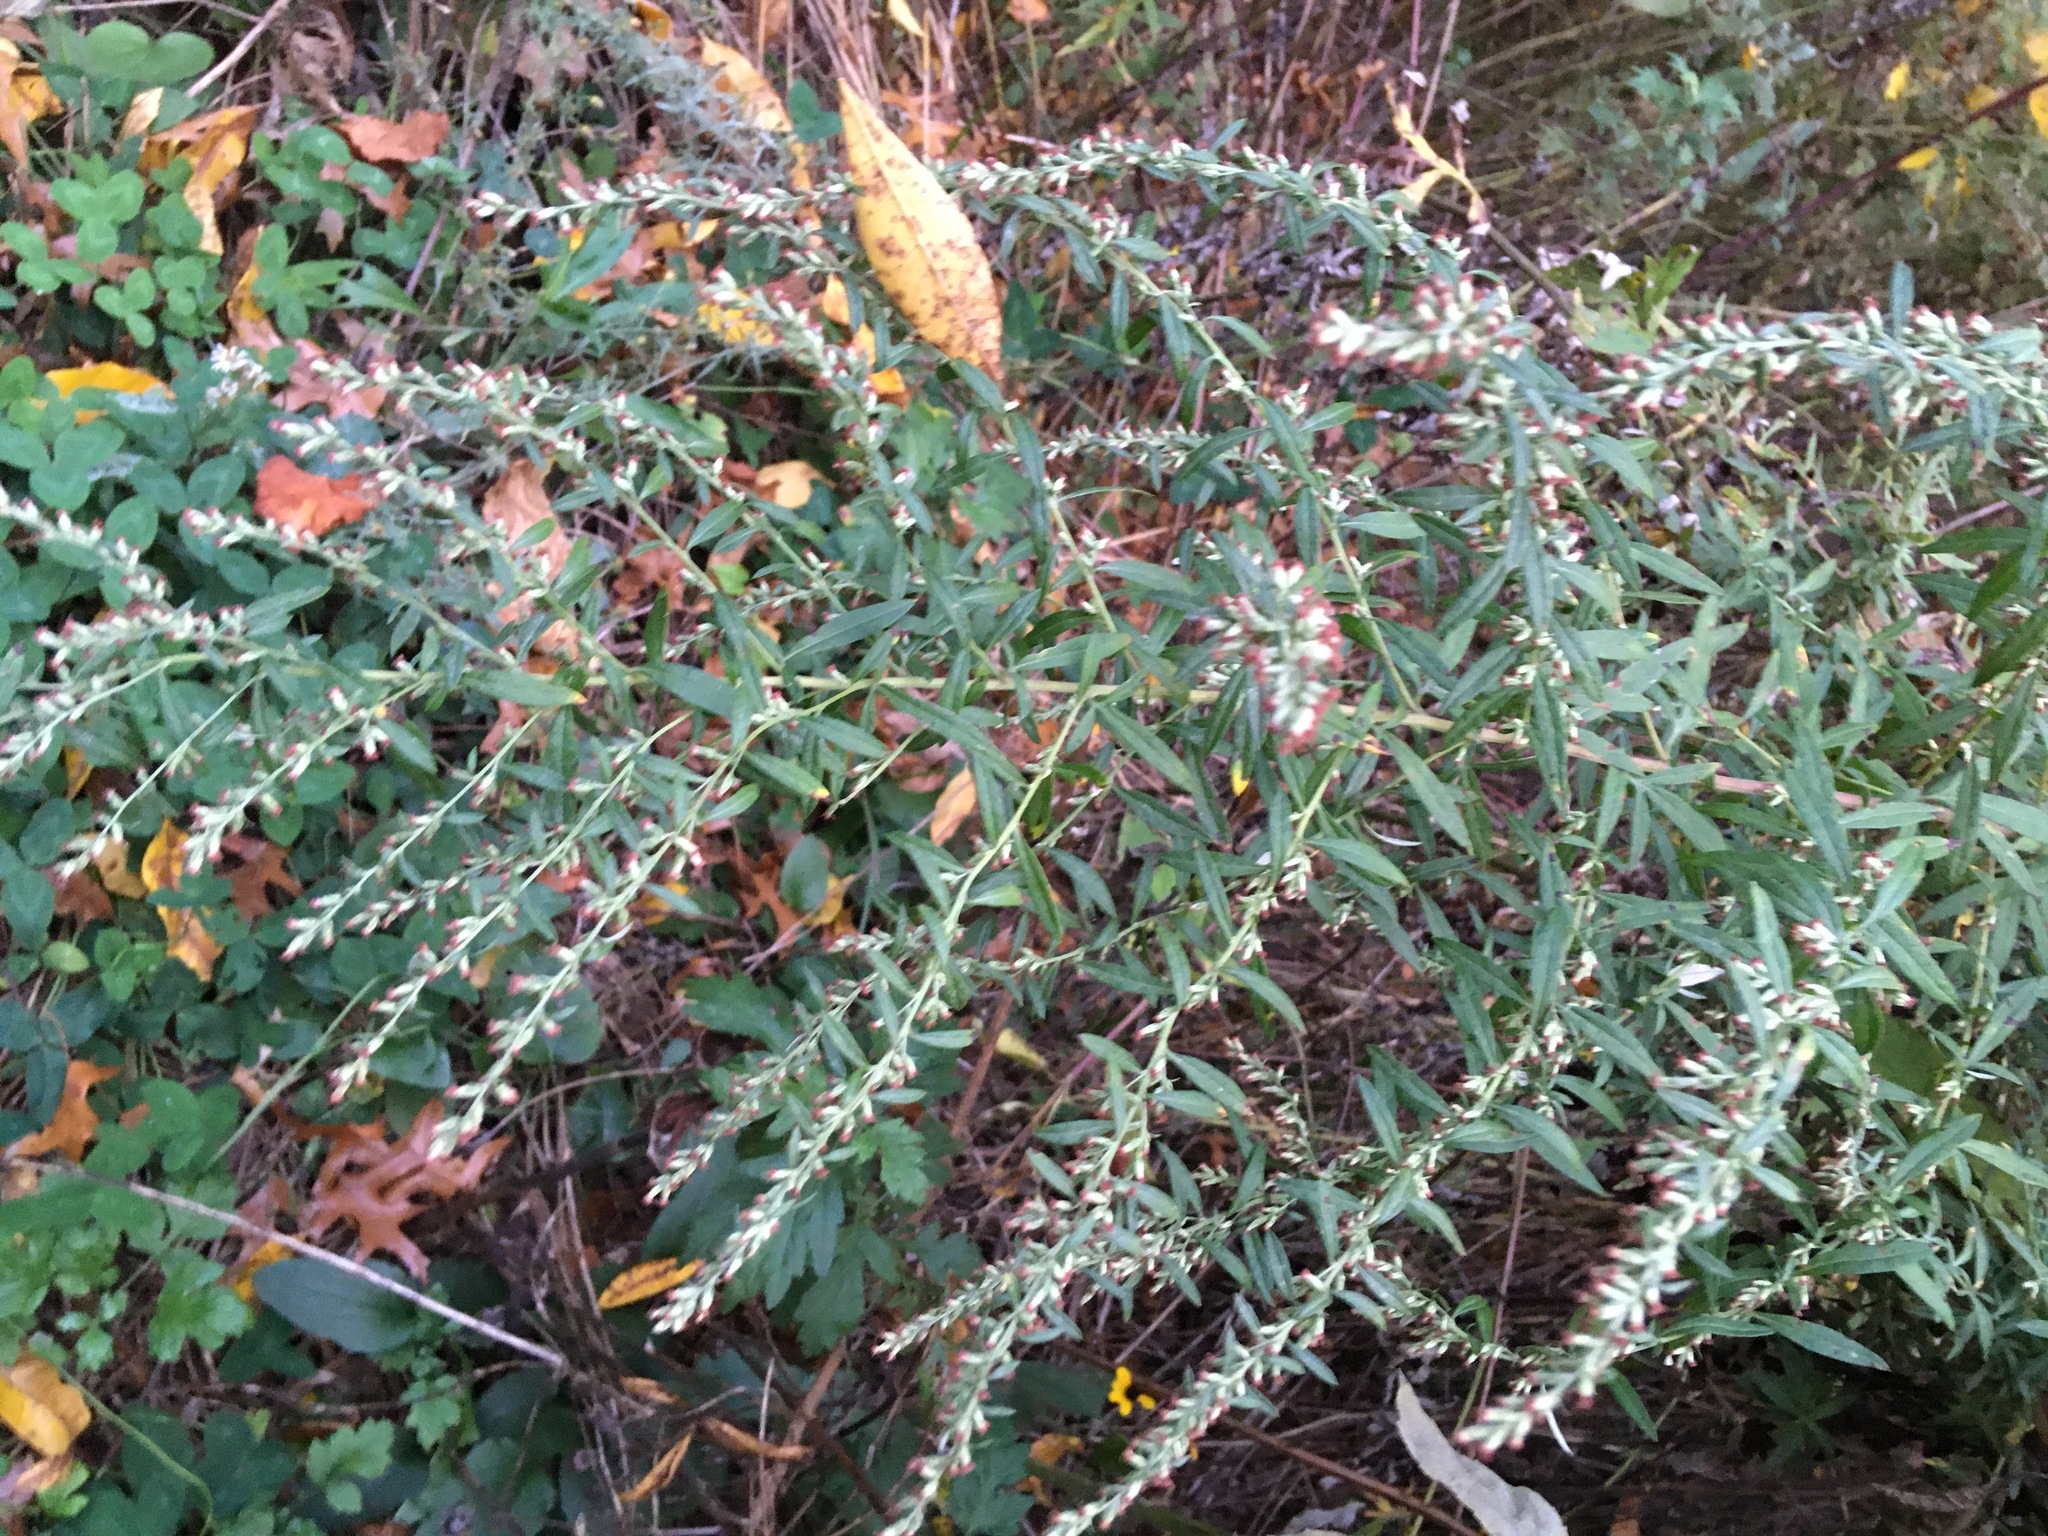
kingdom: Plantae
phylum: Tracheophyta
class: Magnoliopsida
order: Asterales
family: Asteraceae
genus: Artemisia
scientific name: Artemisia vulgaris
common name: Mugwort
